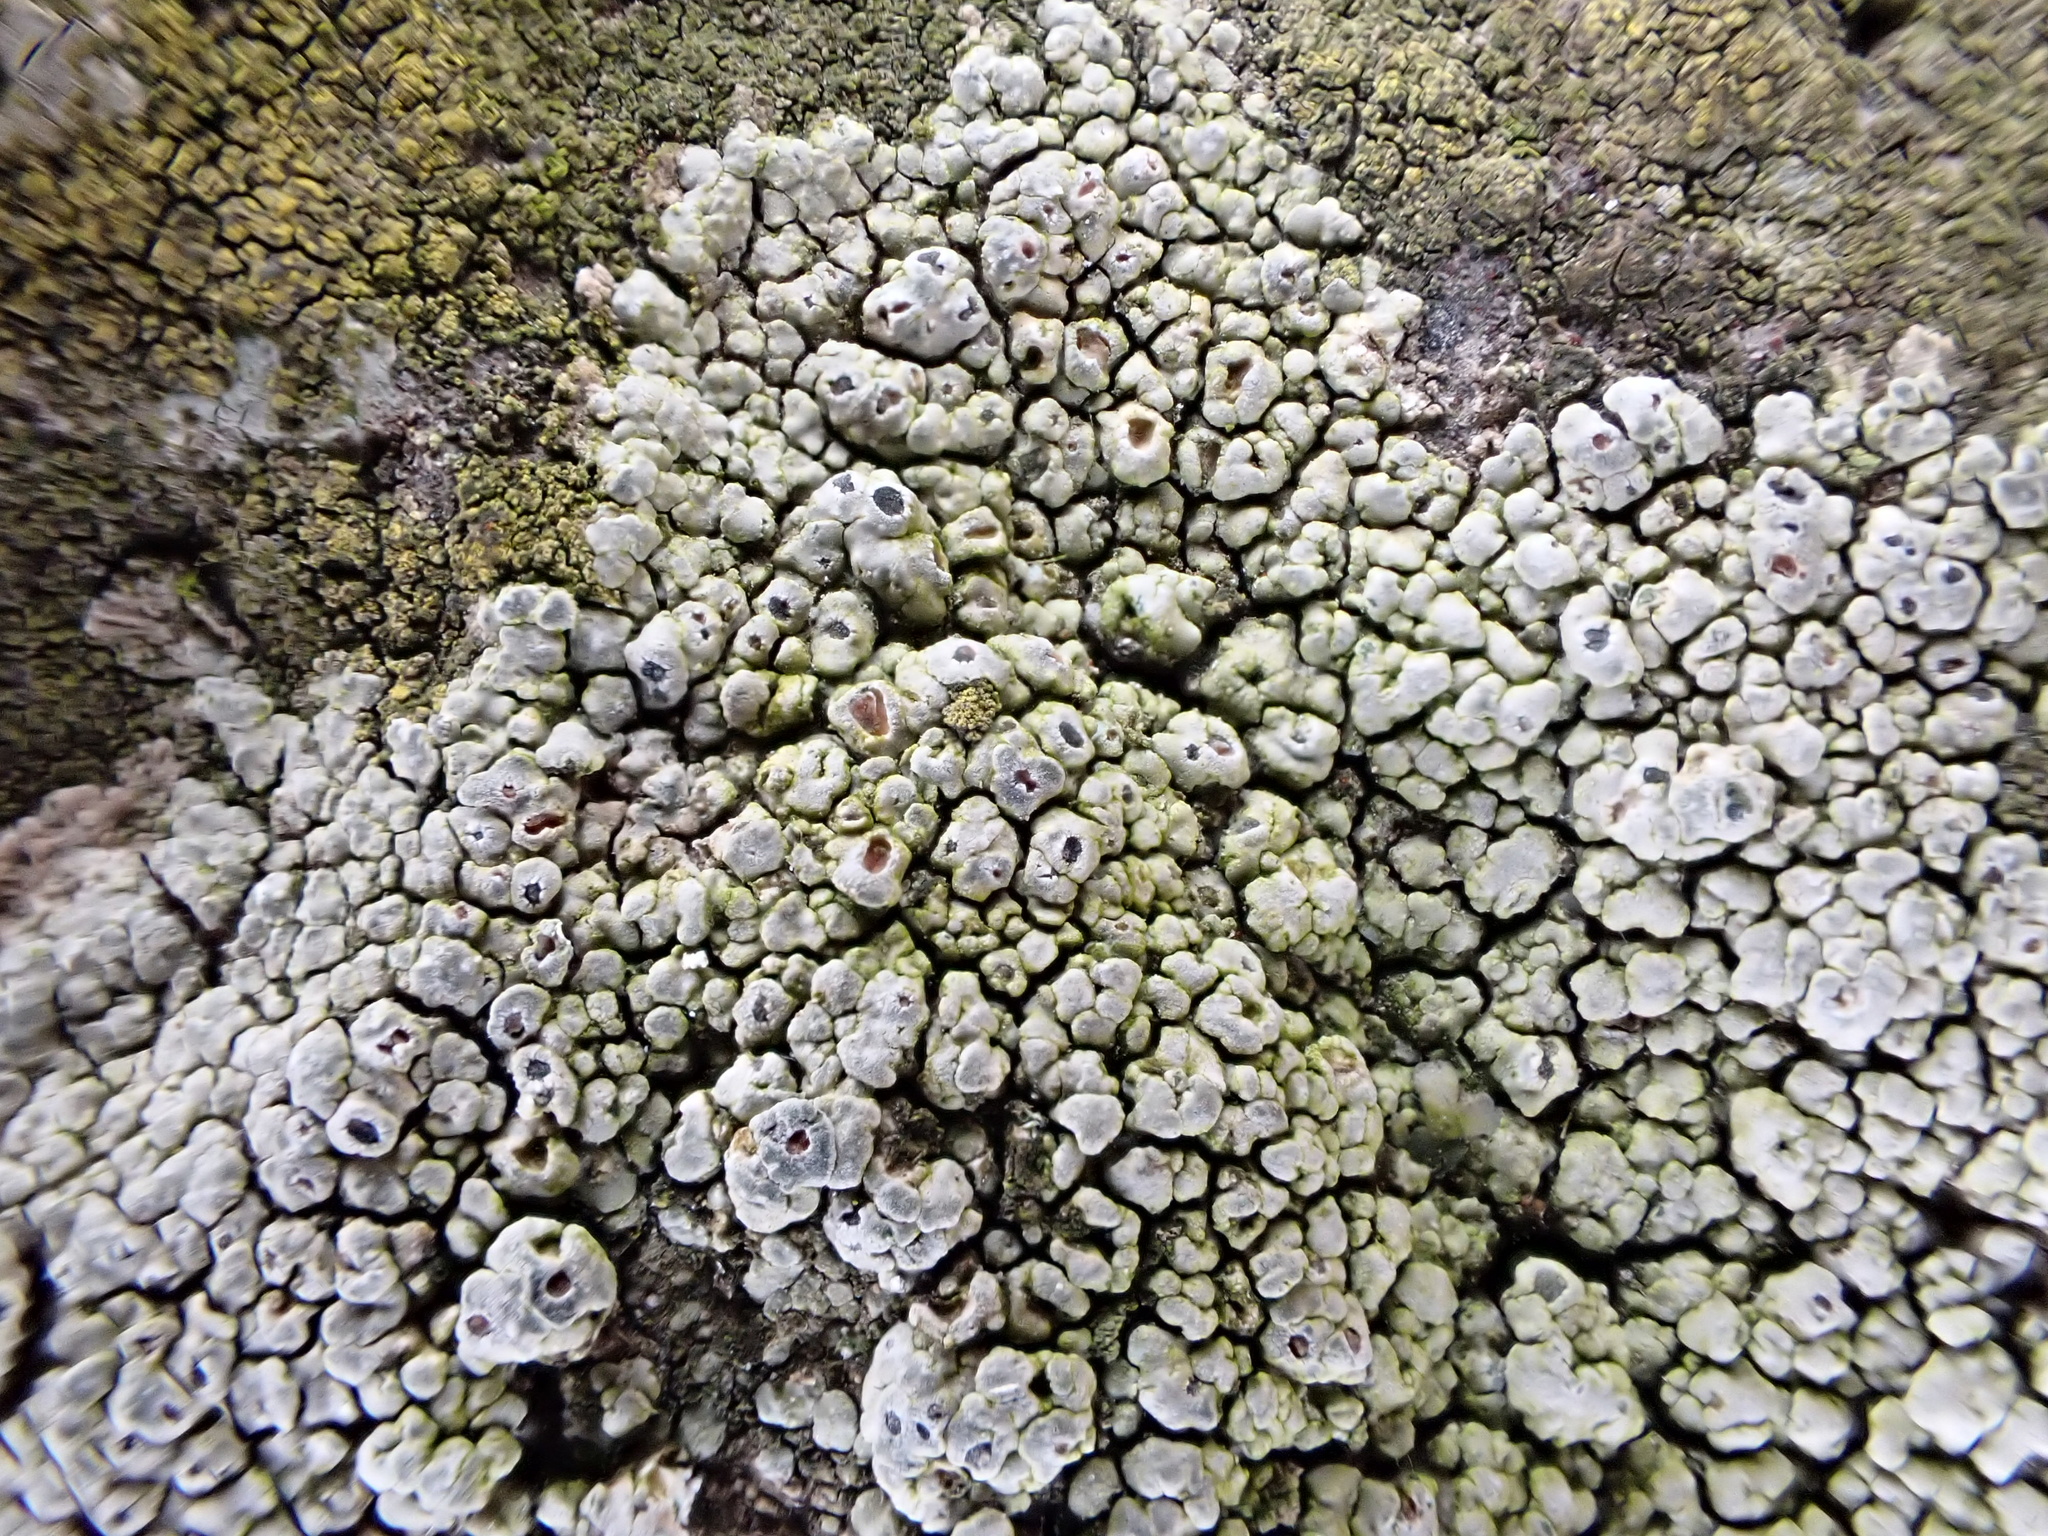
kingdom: Fungi
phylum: Ascomycota
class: Lecanoromycetes
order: Pertusariales
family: Megasporaceae
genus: Circinaria
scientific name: Circinaria contorta
